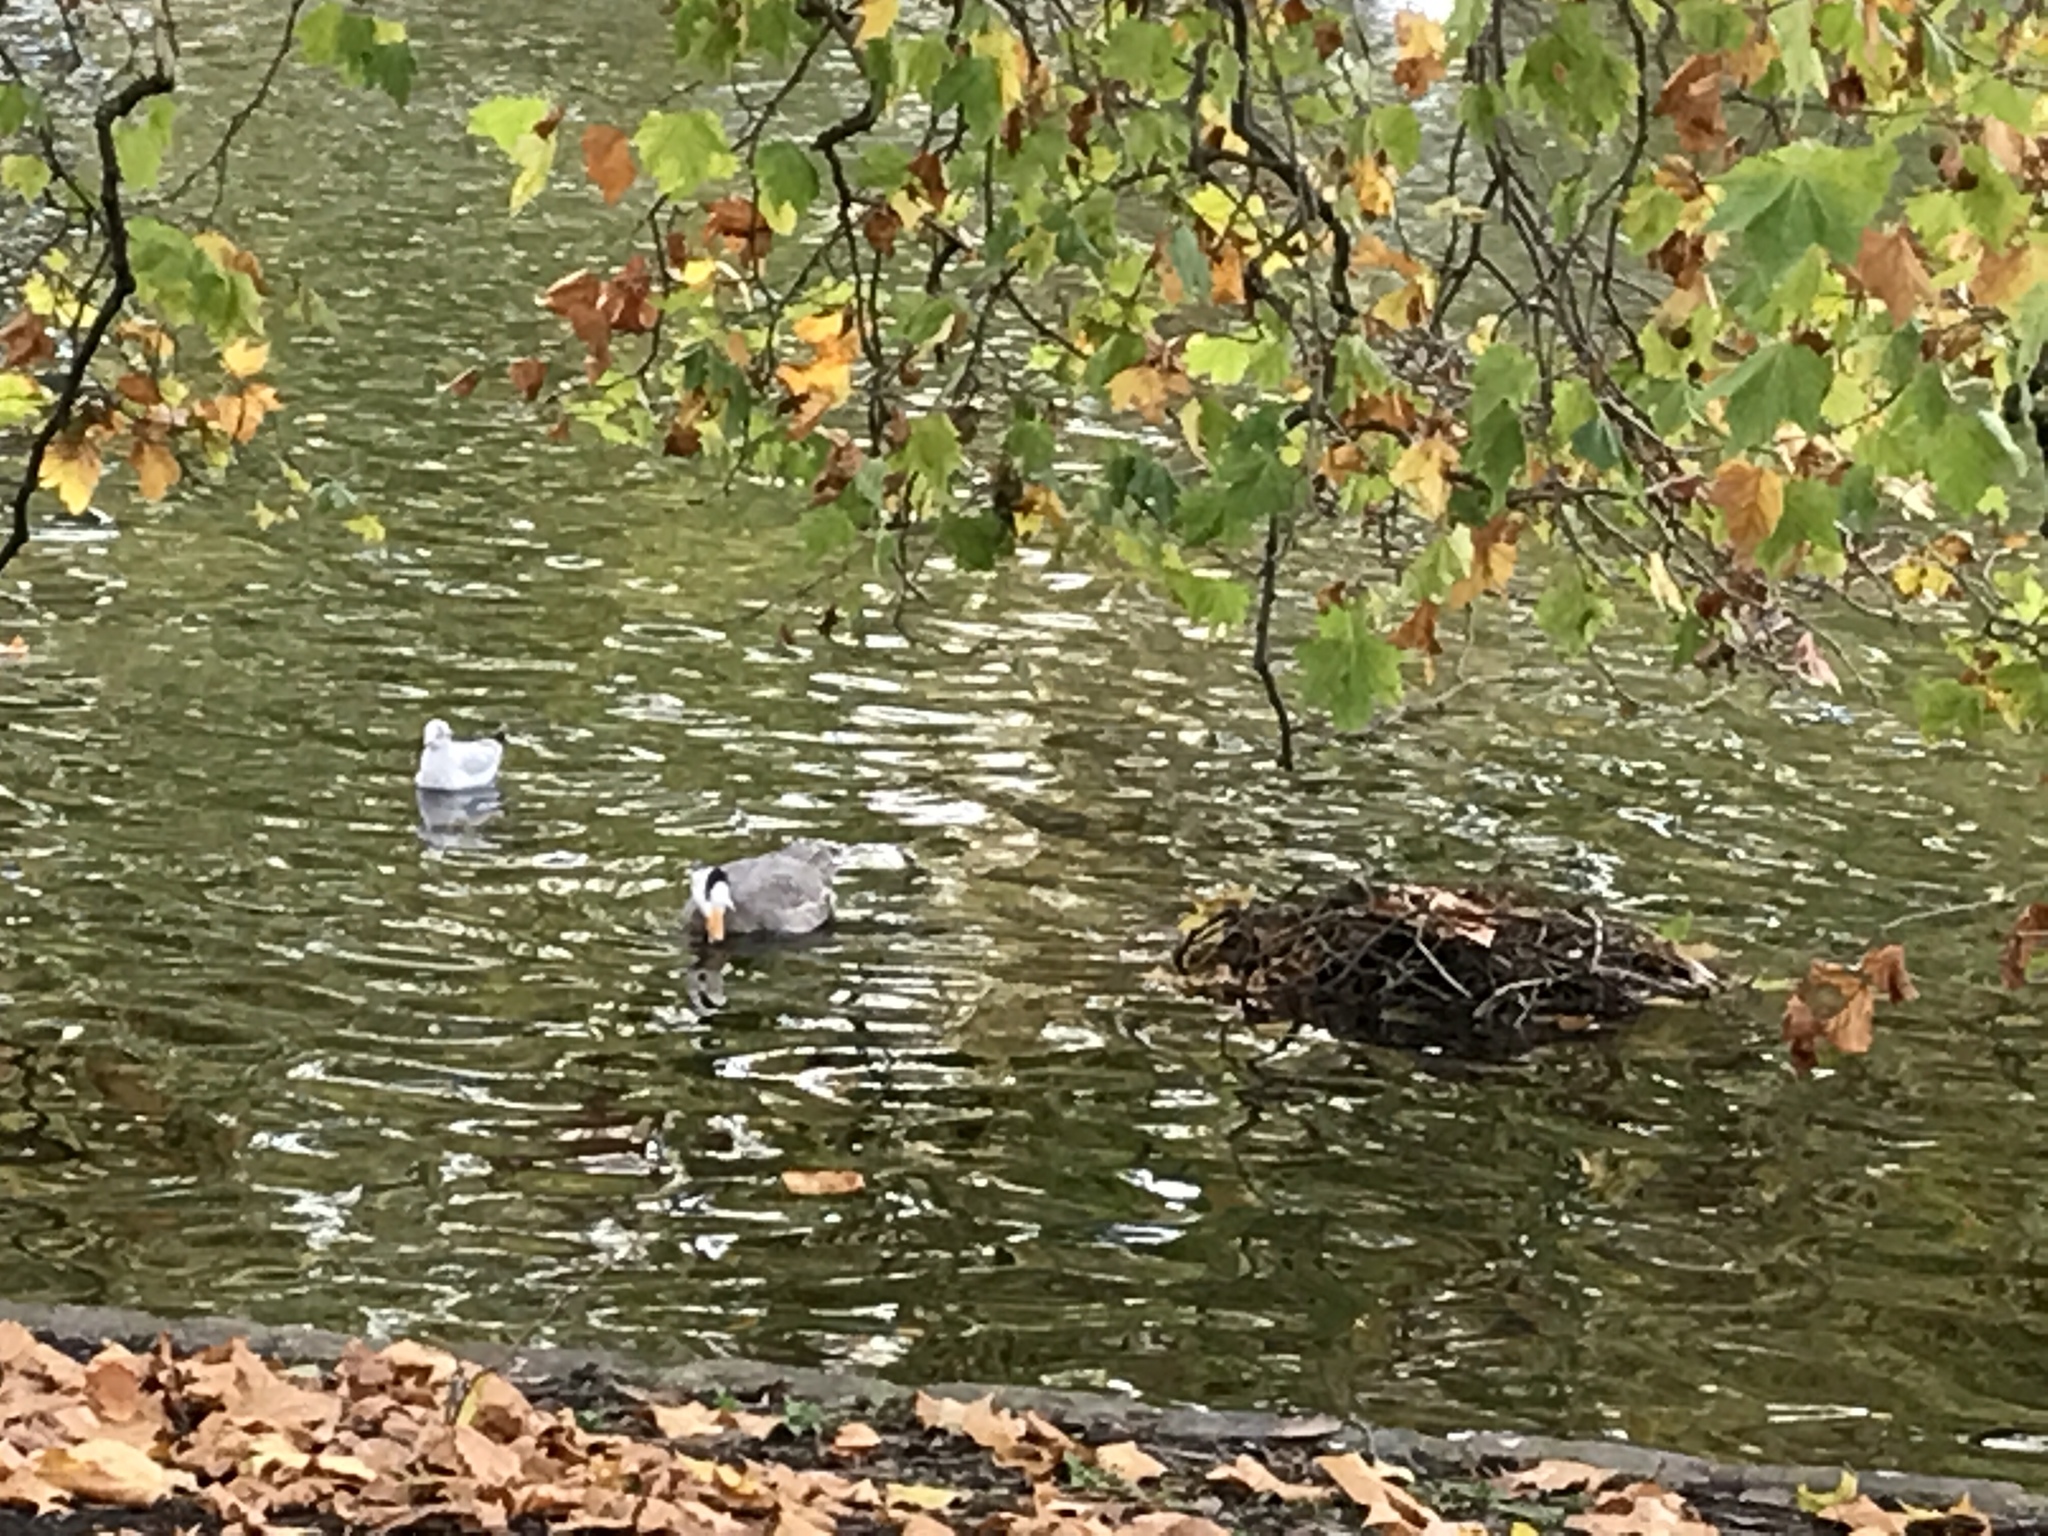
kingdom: Animalia
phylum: Chordata
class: Aves
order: Anseriformes
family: Anatidae
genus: Anser
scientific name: Anser indicus
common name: Bar-headed goose
